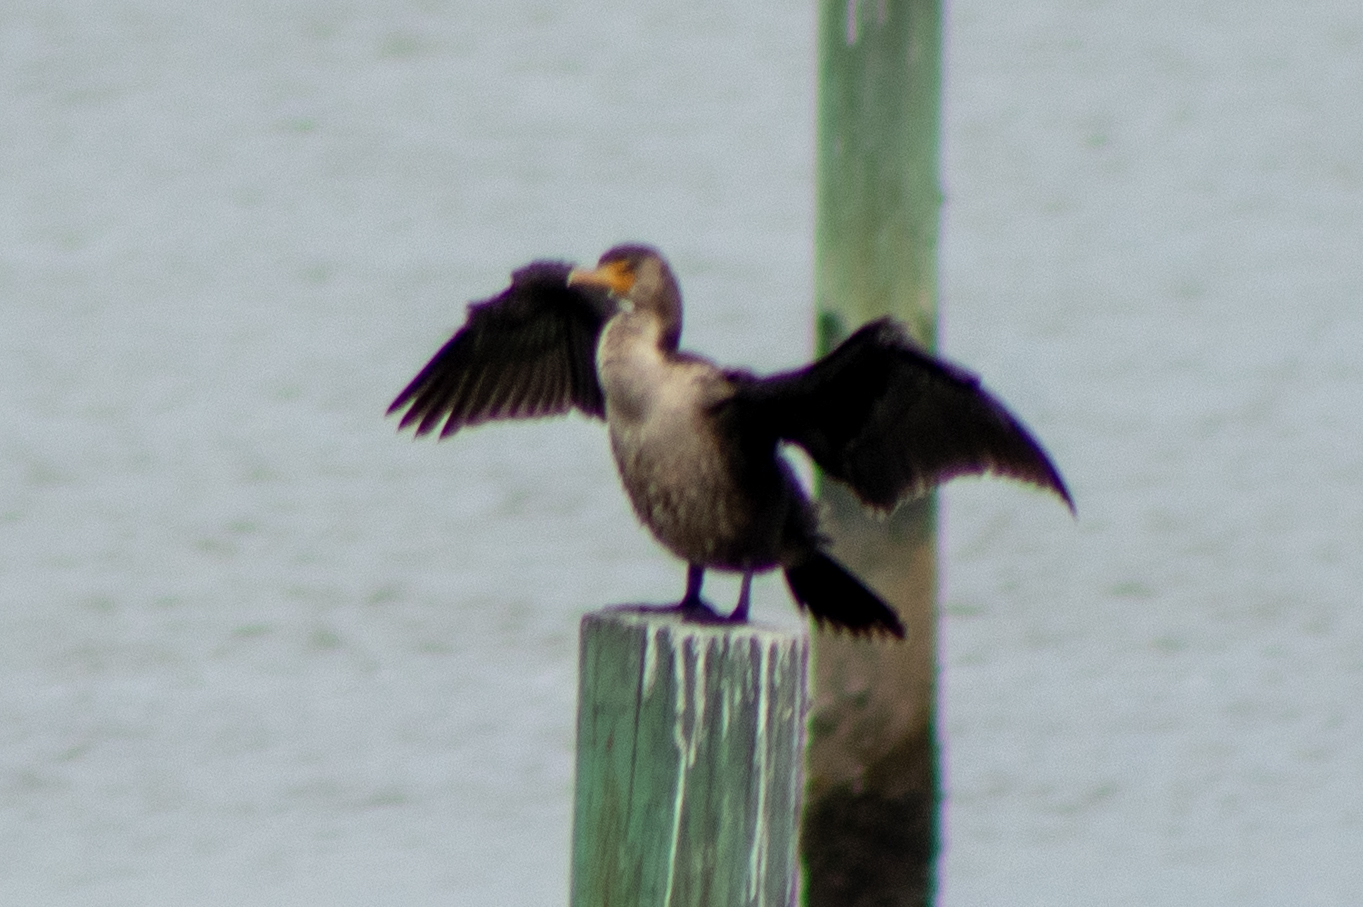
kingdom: Animalia
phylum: Chordata
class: Aves
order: Suliformes
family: Phalacrocoracidae
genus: Phalacrocorax
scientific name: Phalacrocorax auritus
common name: Double-crested cormorant
